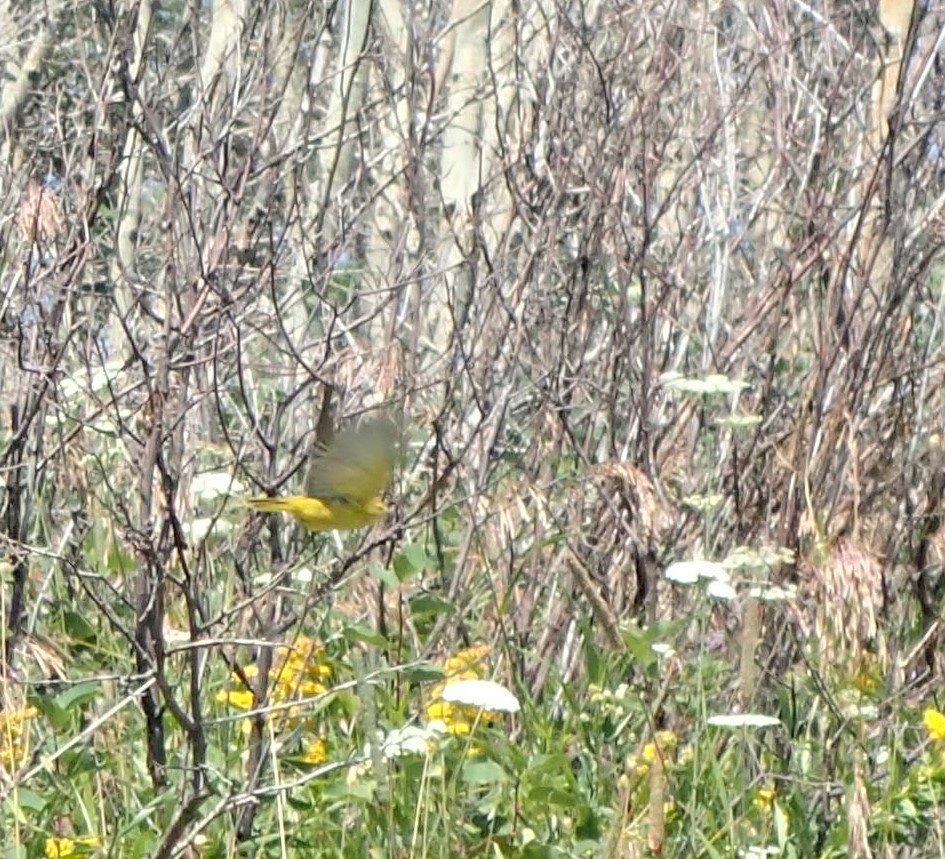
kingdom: Animalia
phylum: Chordata
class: Aves
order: Passeriformes
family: Parulidae
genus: Setophaga
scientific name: Setophaga petechia
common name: Yellow warbler
